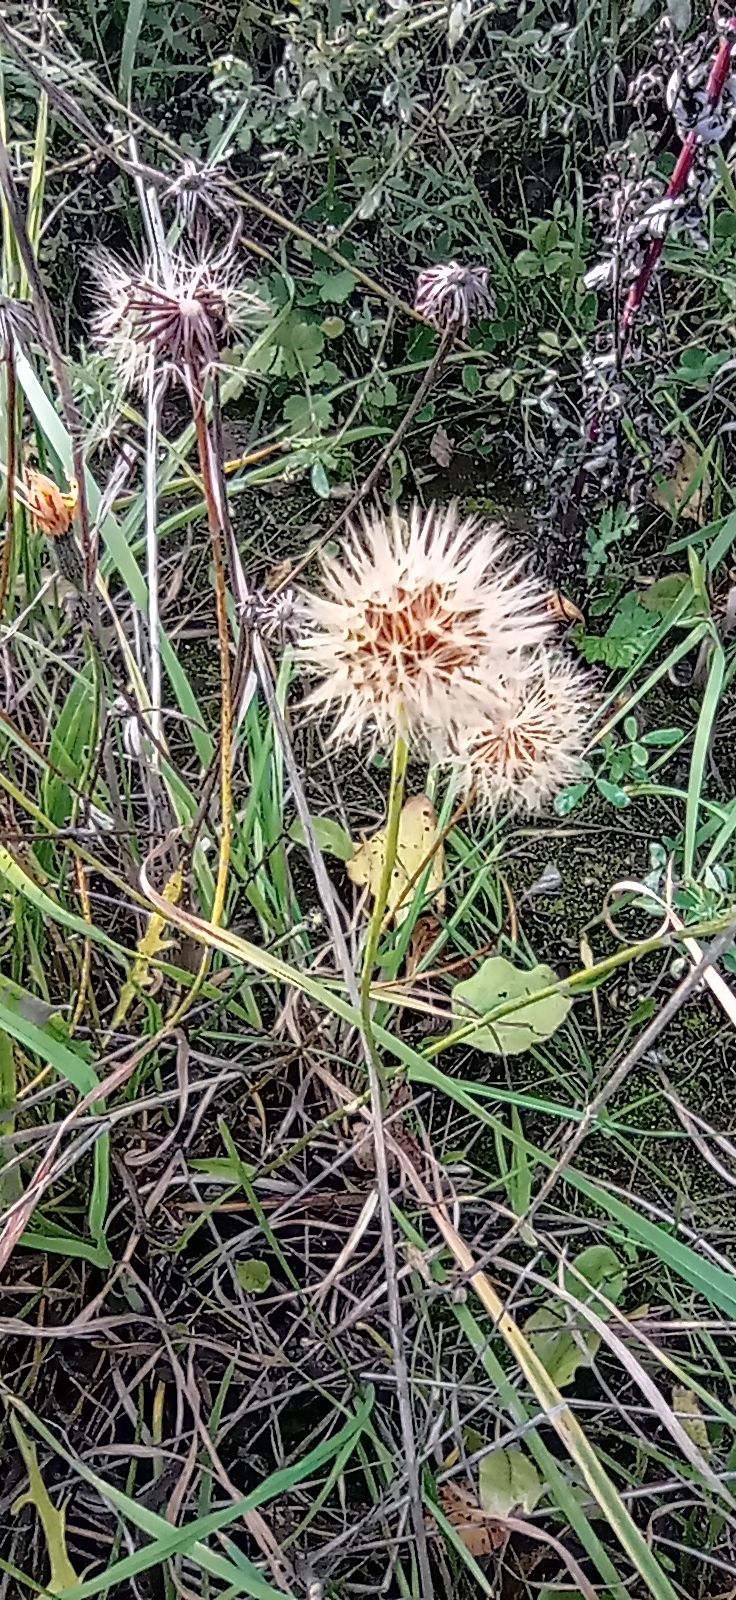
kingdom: Plantae
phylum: Tracheophyta
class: Magnoliopsida
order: Asterales
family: Asteraceae
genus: Scorzoneroides
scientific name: Scorzoneroides autumnalis
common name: Autumn hawkbit
